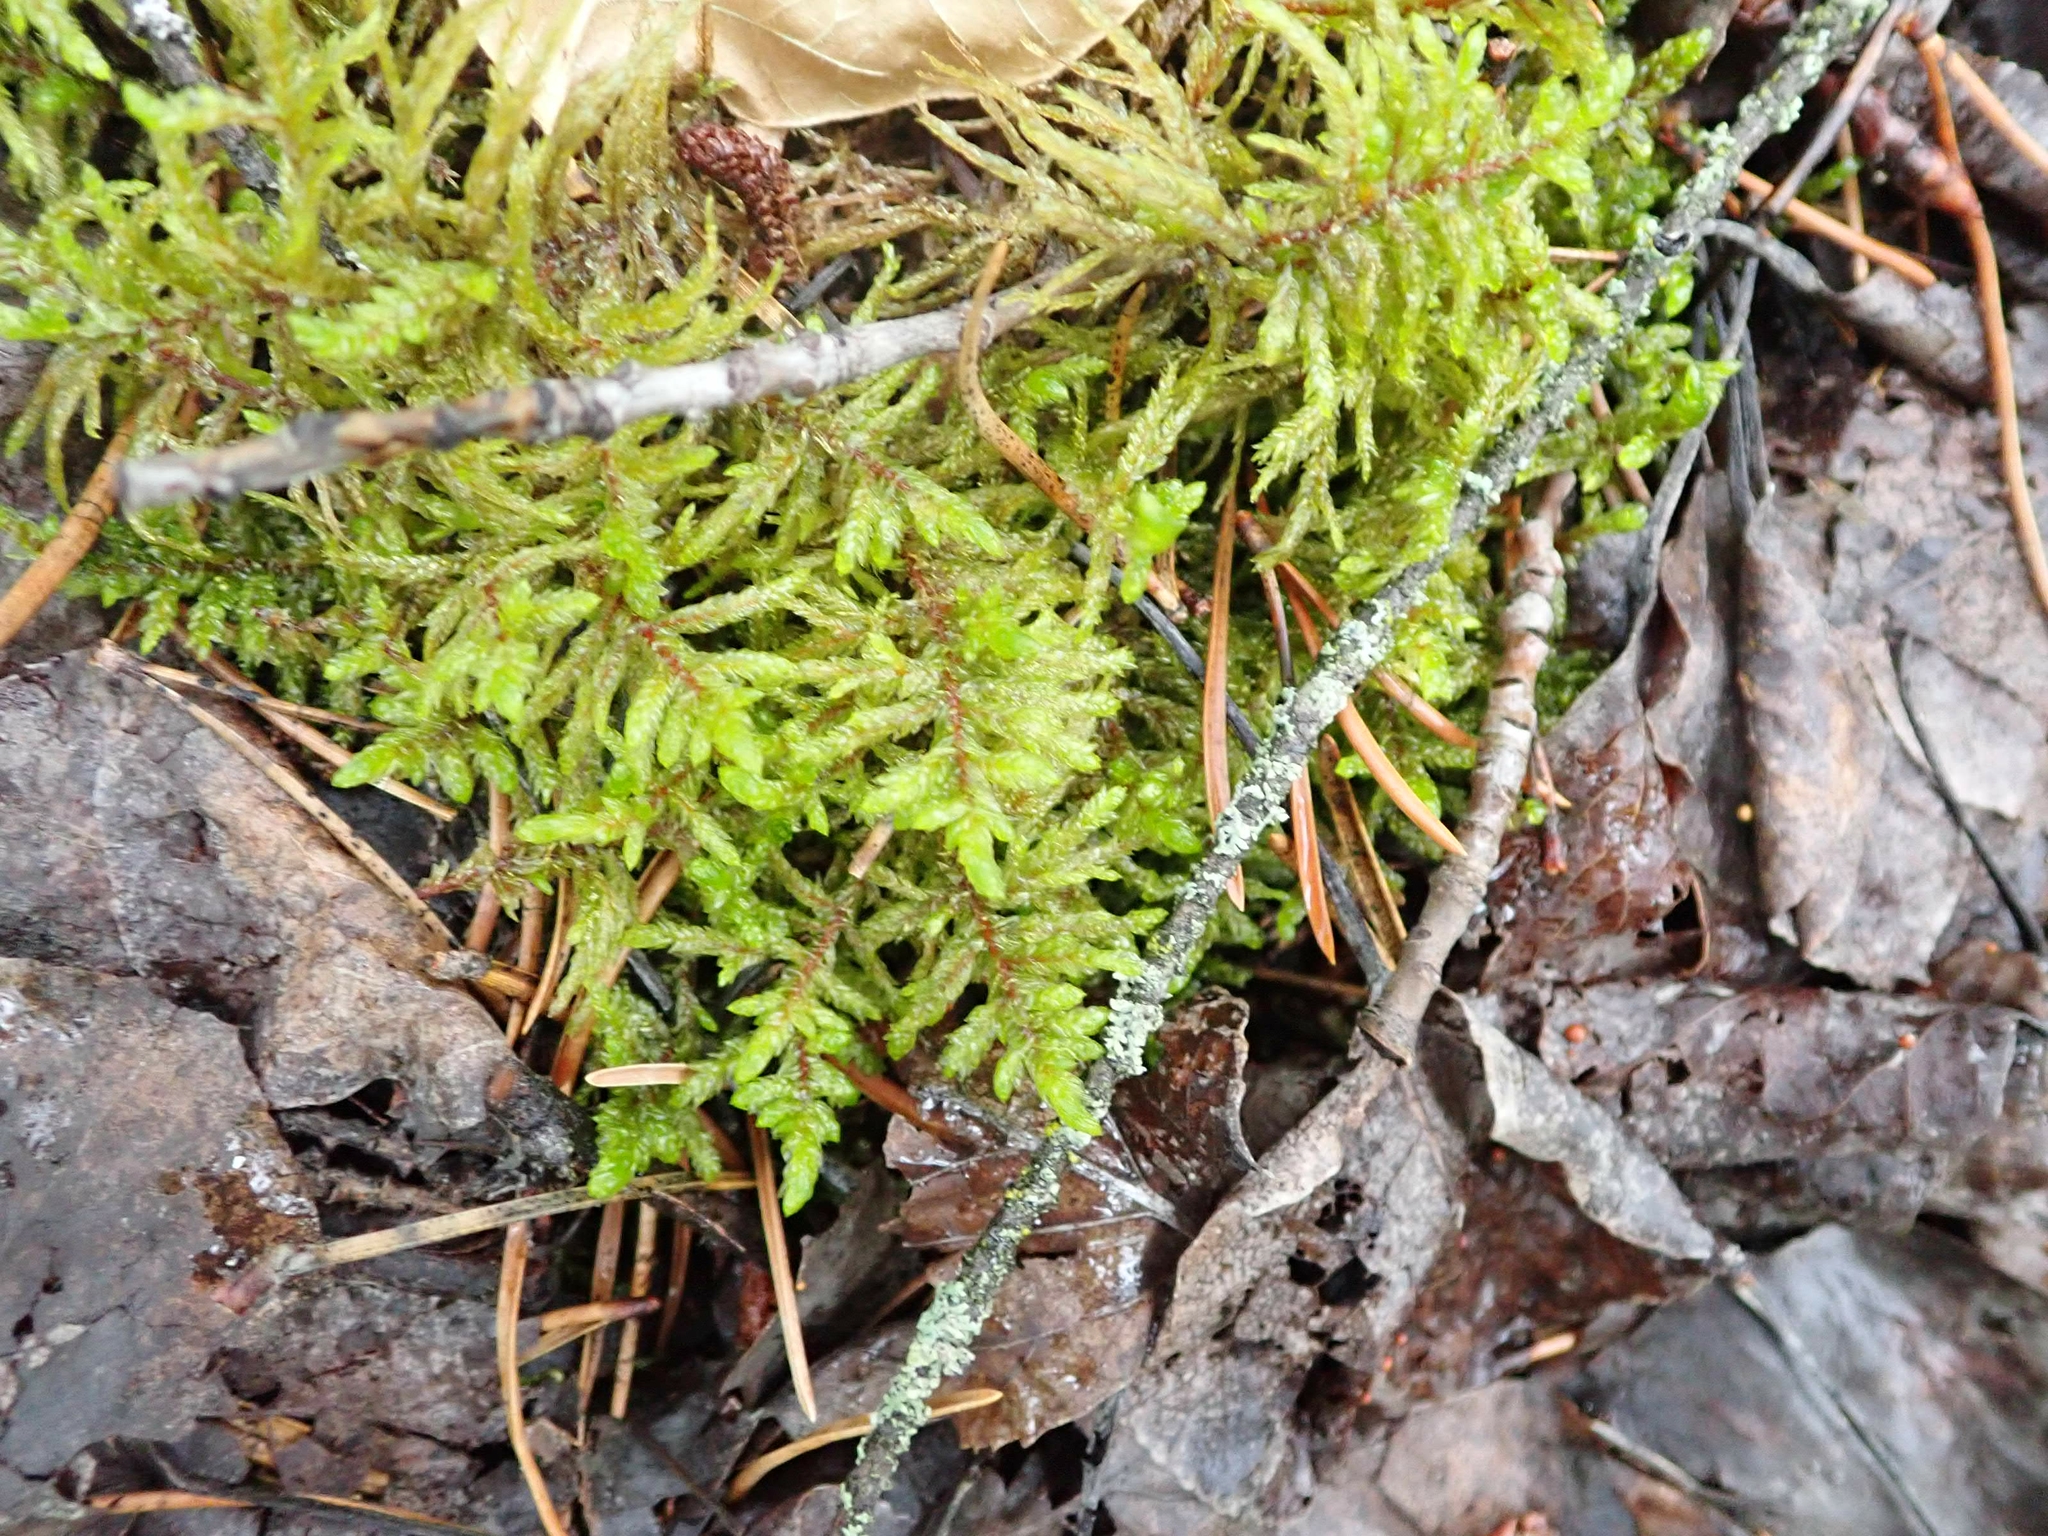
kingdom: Plantae
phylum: Bryophyta
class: Bryopsida
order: Hypnales
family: Hylocomiaceae
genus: Pleurozium
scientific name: Pleurozium schreberi
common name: Red-stemmed feather moss
